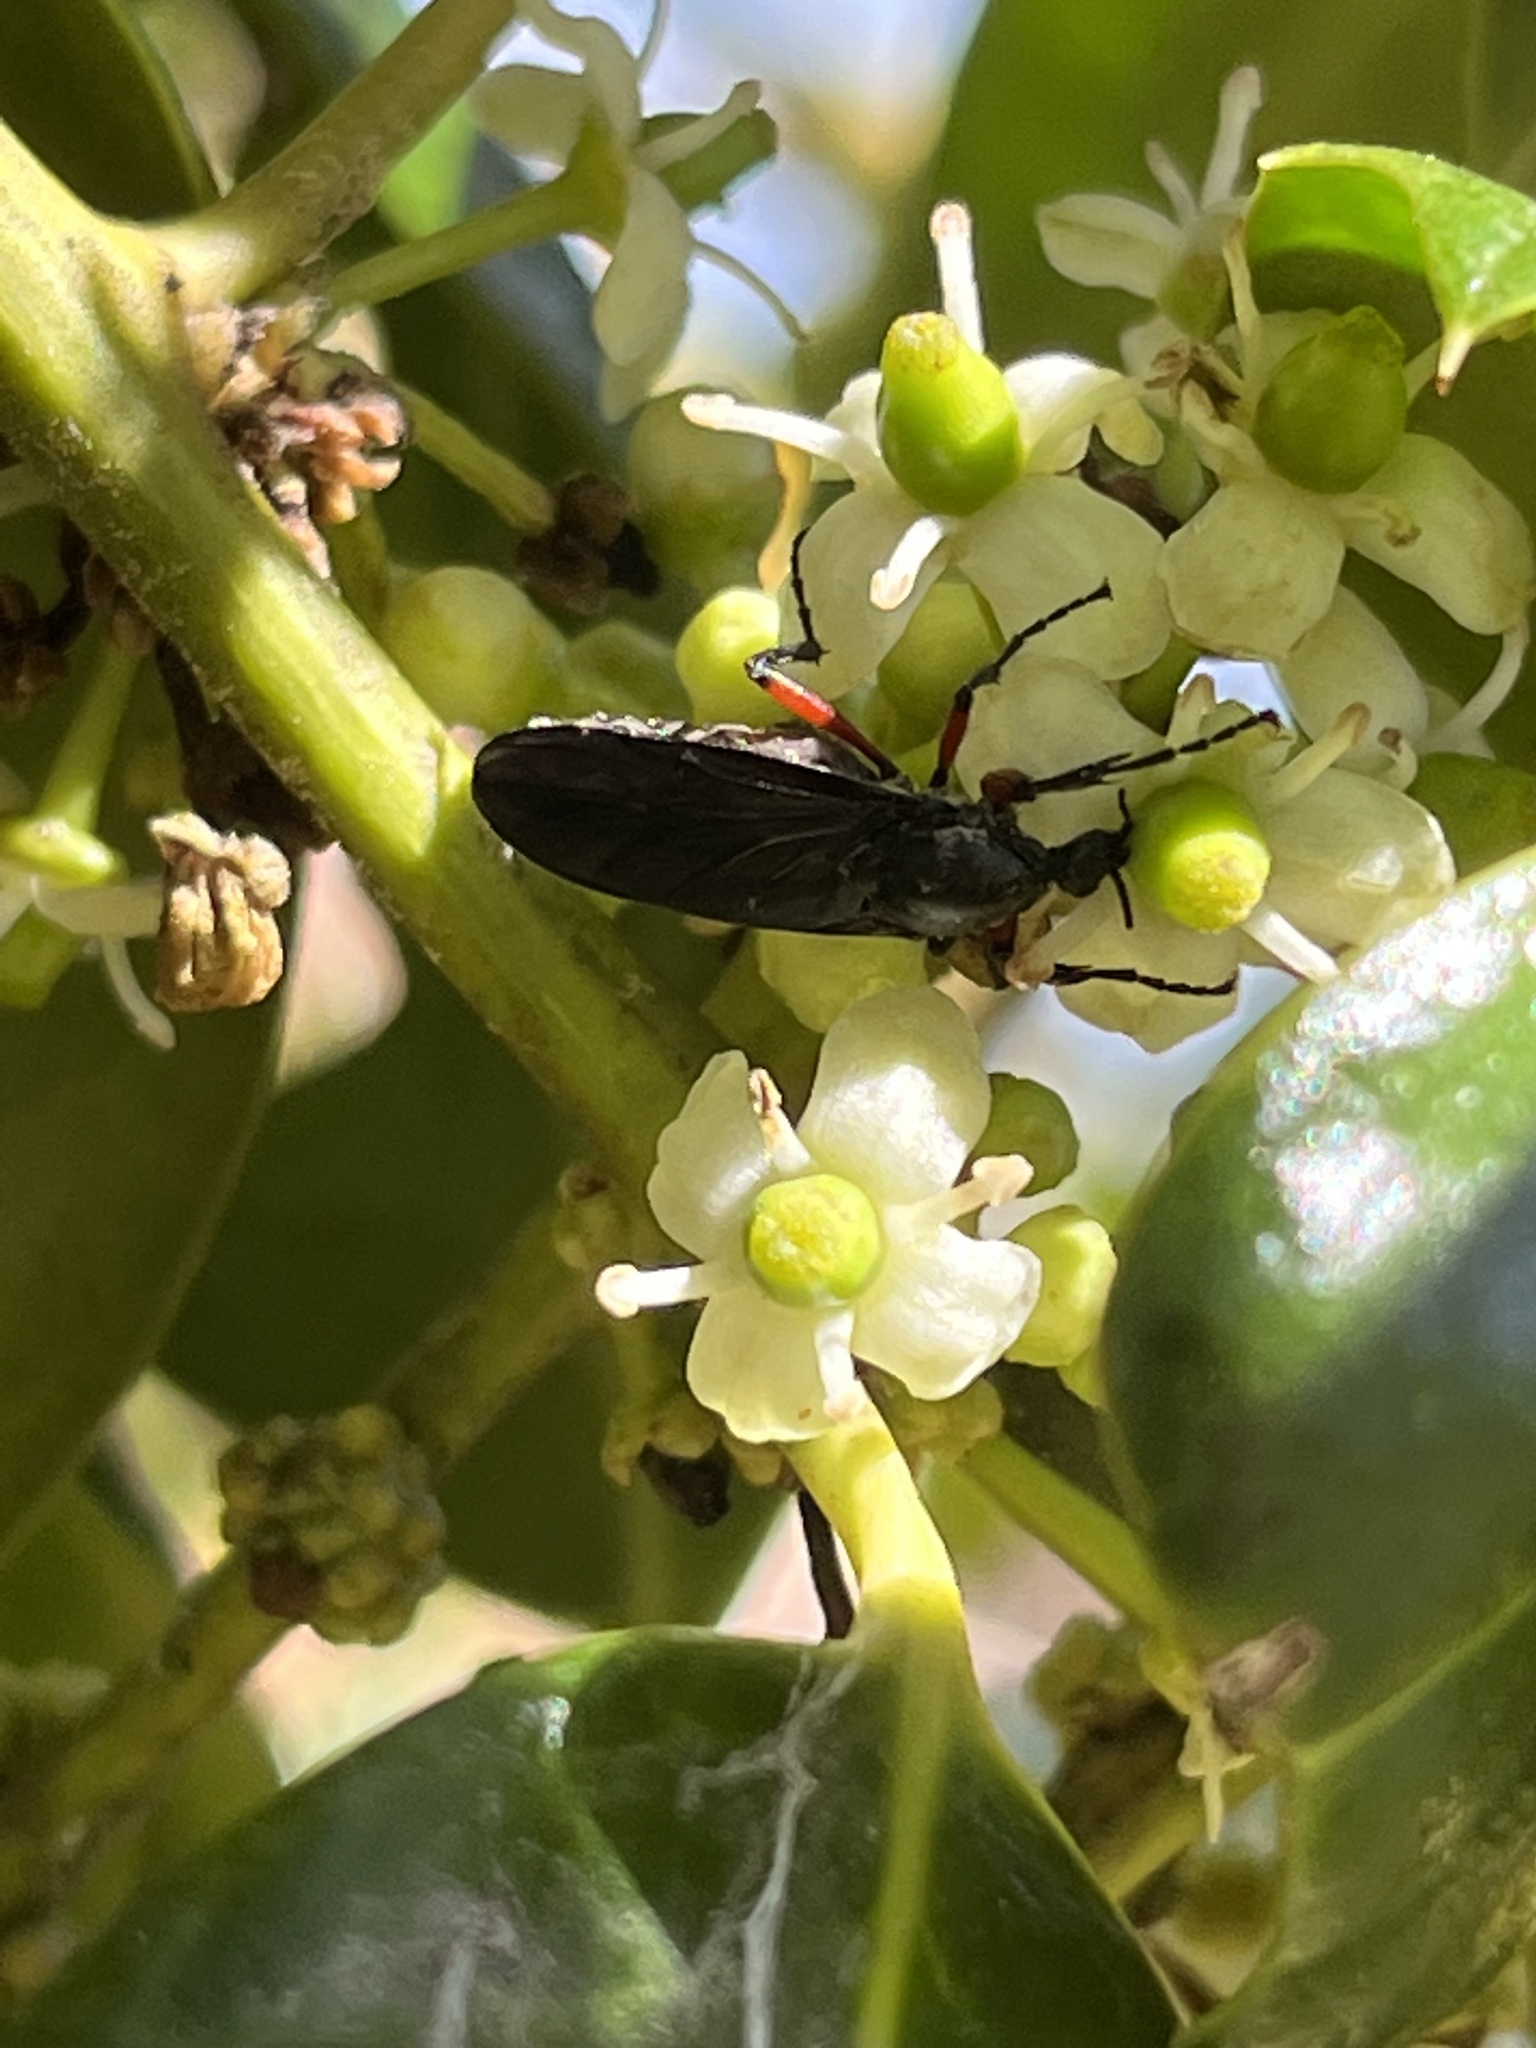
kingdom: Animalia
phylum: Arthropoda
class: Insecta
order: Diptera
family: Bibionidae
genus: Bibio
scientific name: Bibio femoratus
